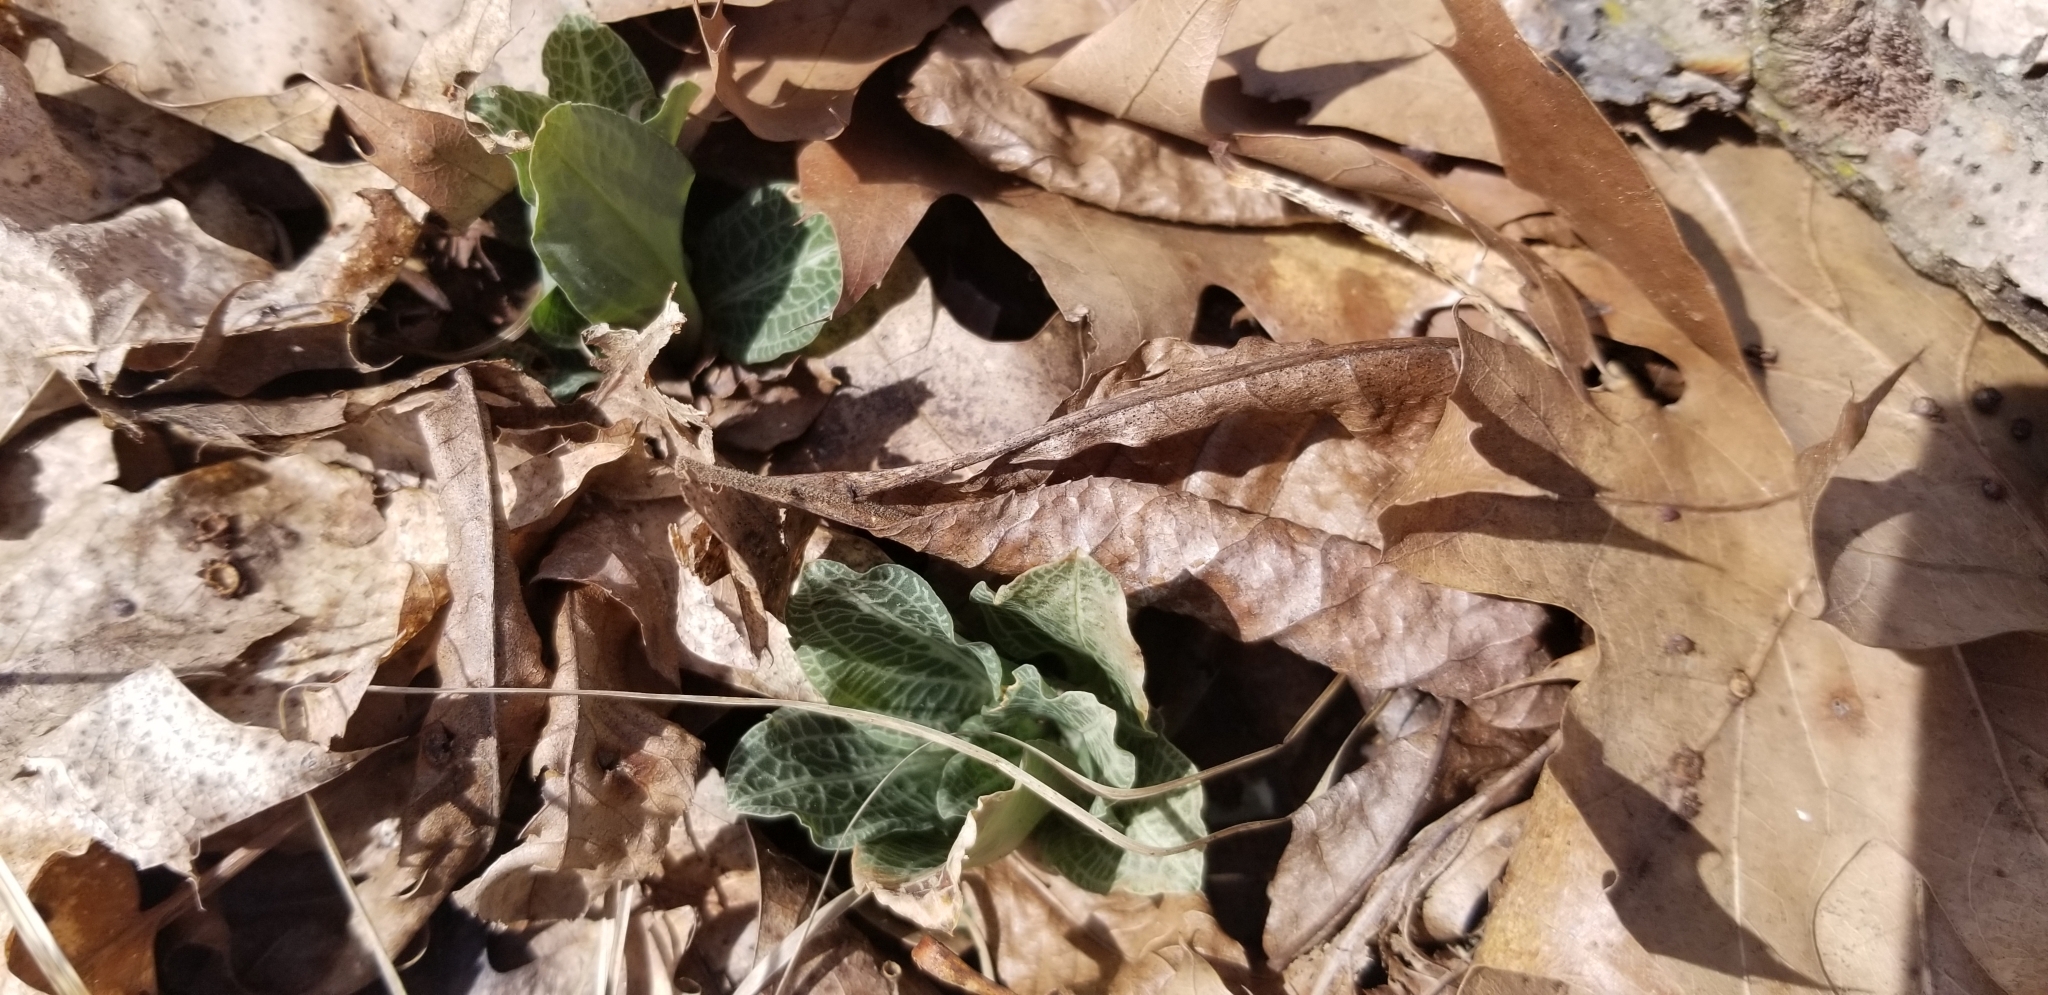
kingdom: Plantae
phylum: Tracheophyta
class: Liliopsida
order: Asparagales
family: Orchidaceae
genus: Goodyera
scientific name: Goodyera pubescens
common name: Downy rattlesnake-plantain
